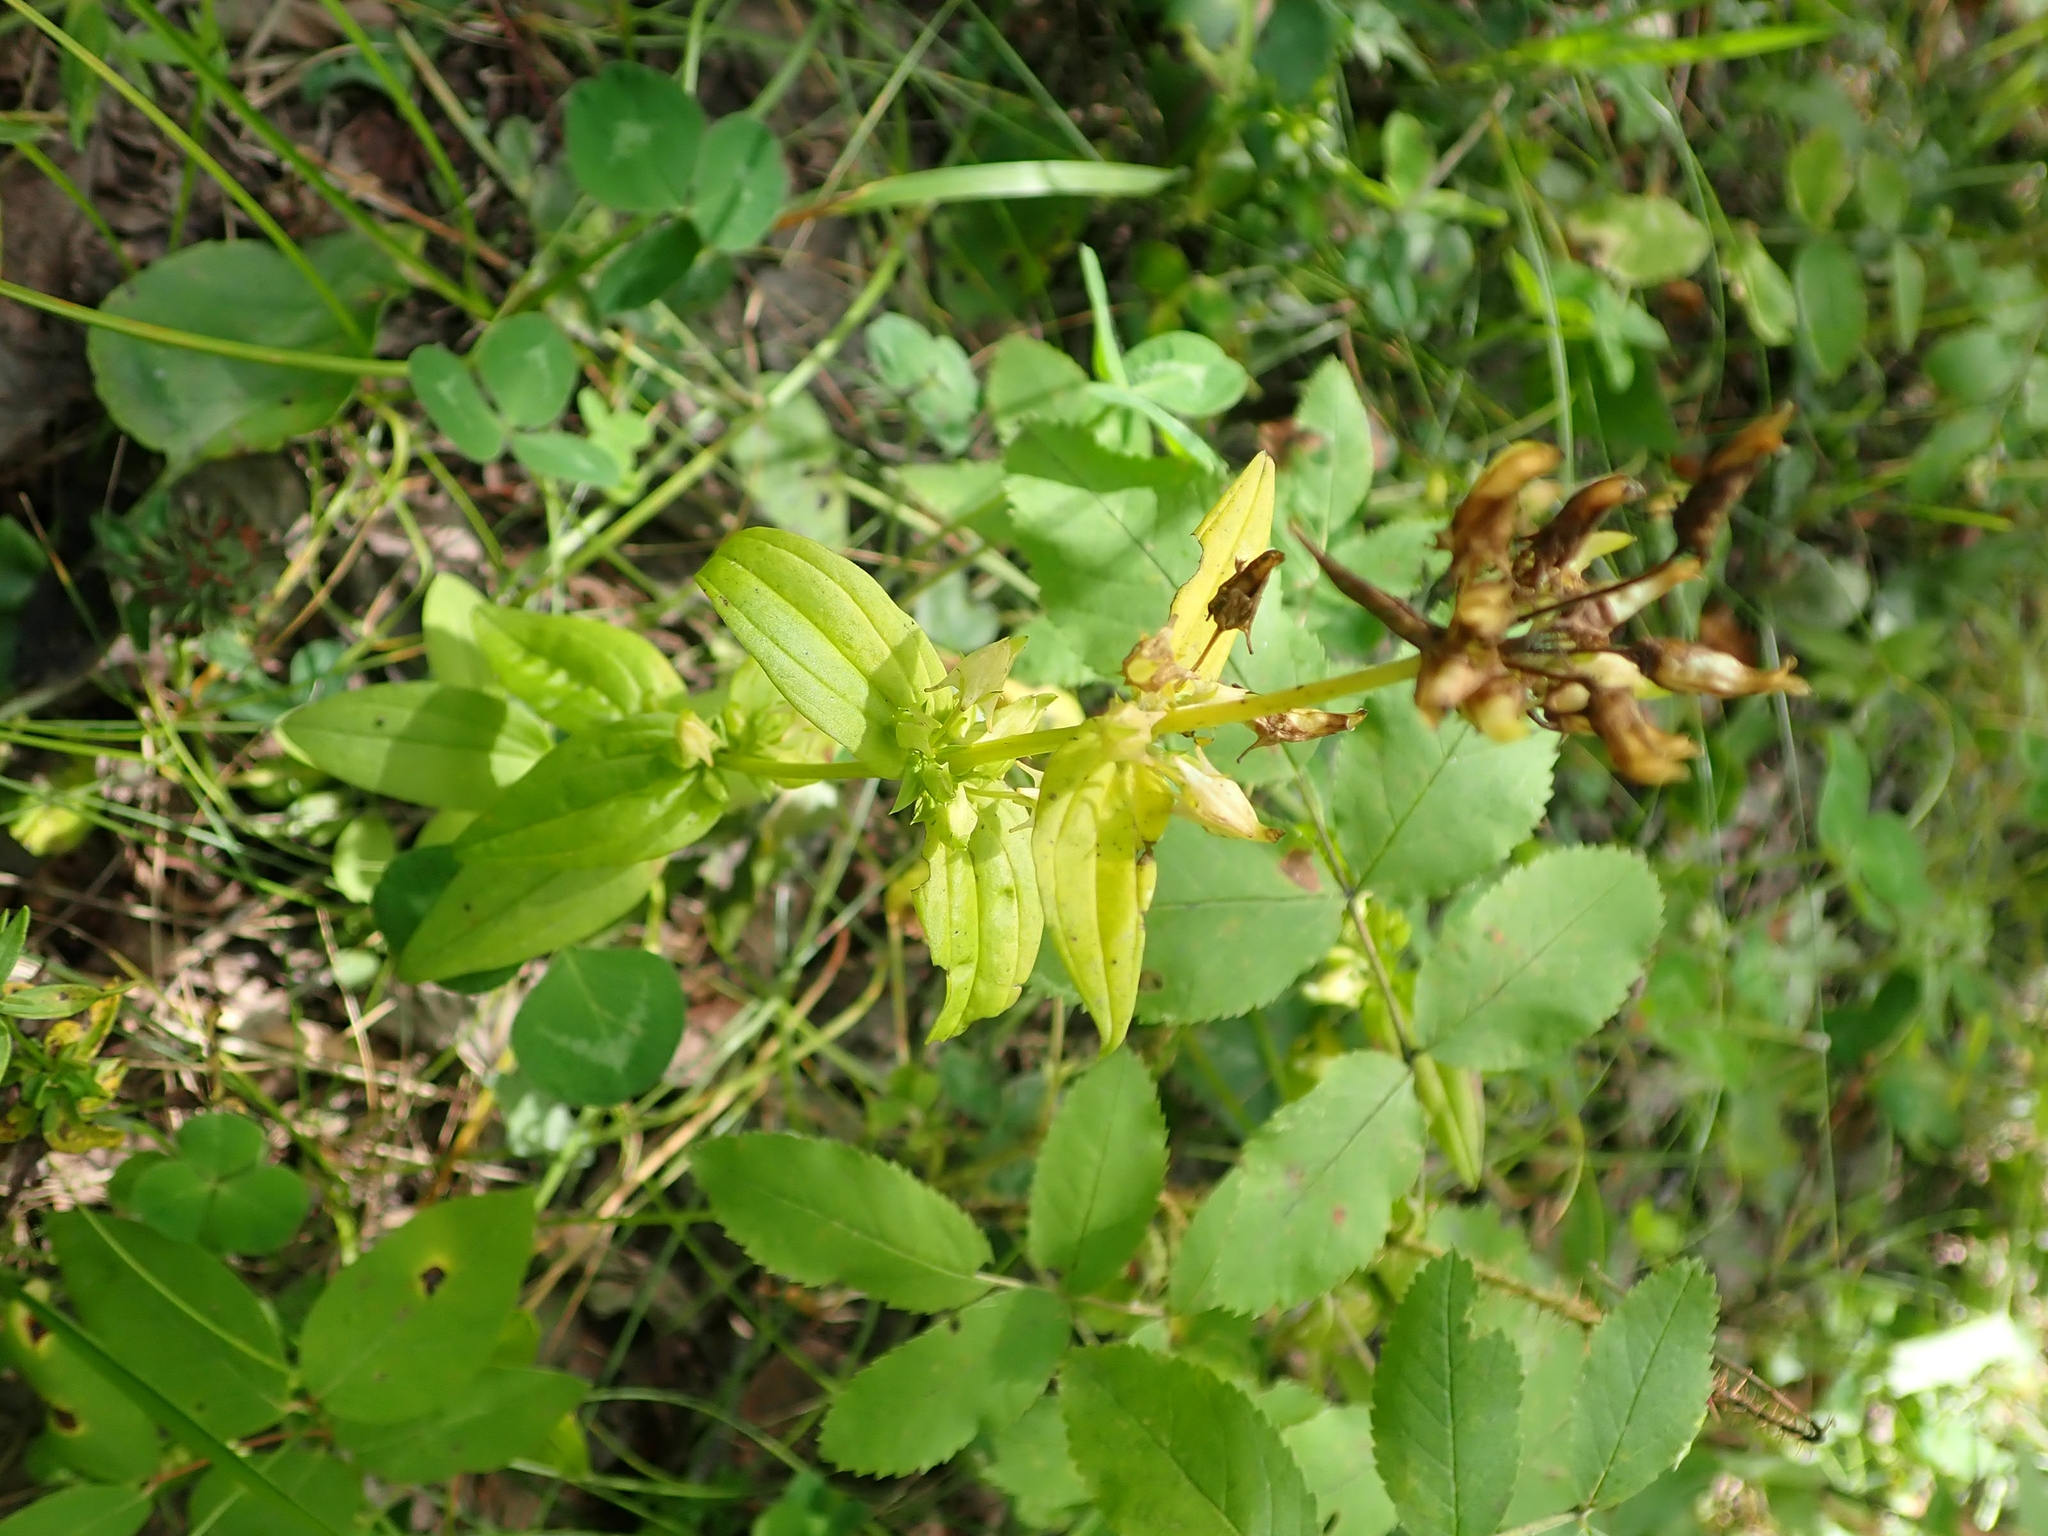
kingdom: Plantae
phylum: Tracheophyta
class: Magnoliopsida
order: Gentianales
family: Gentianaceae
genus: Halenia
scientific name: Halenia deflexa
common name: American spurred gentian
